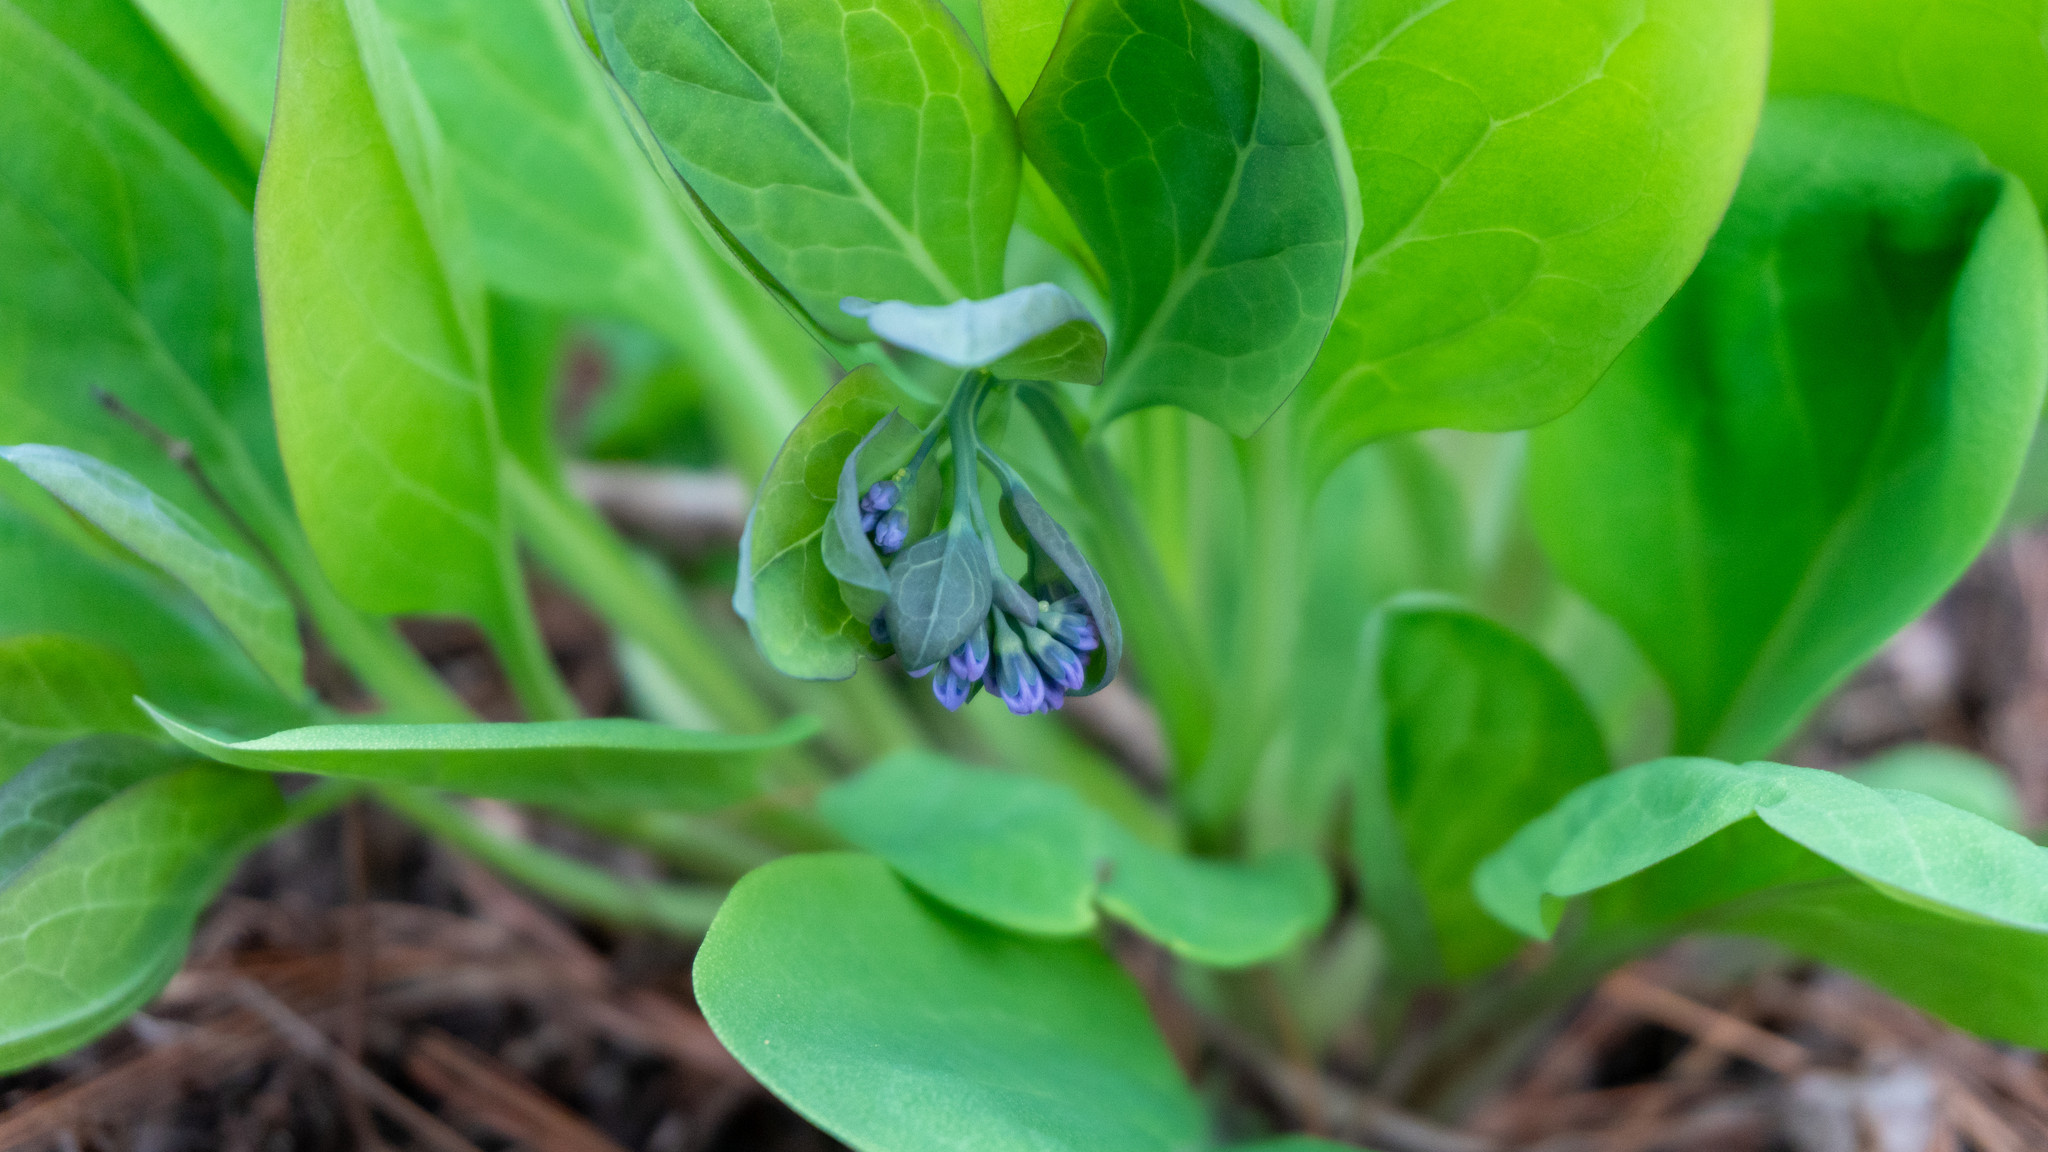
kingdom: Plantae
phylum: Tracheophyta
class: Magnoliopsida
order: Boraginales
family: Boraginaceae
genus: Mertensia
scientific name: Mertensia virginica
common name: Virginia bluebells
